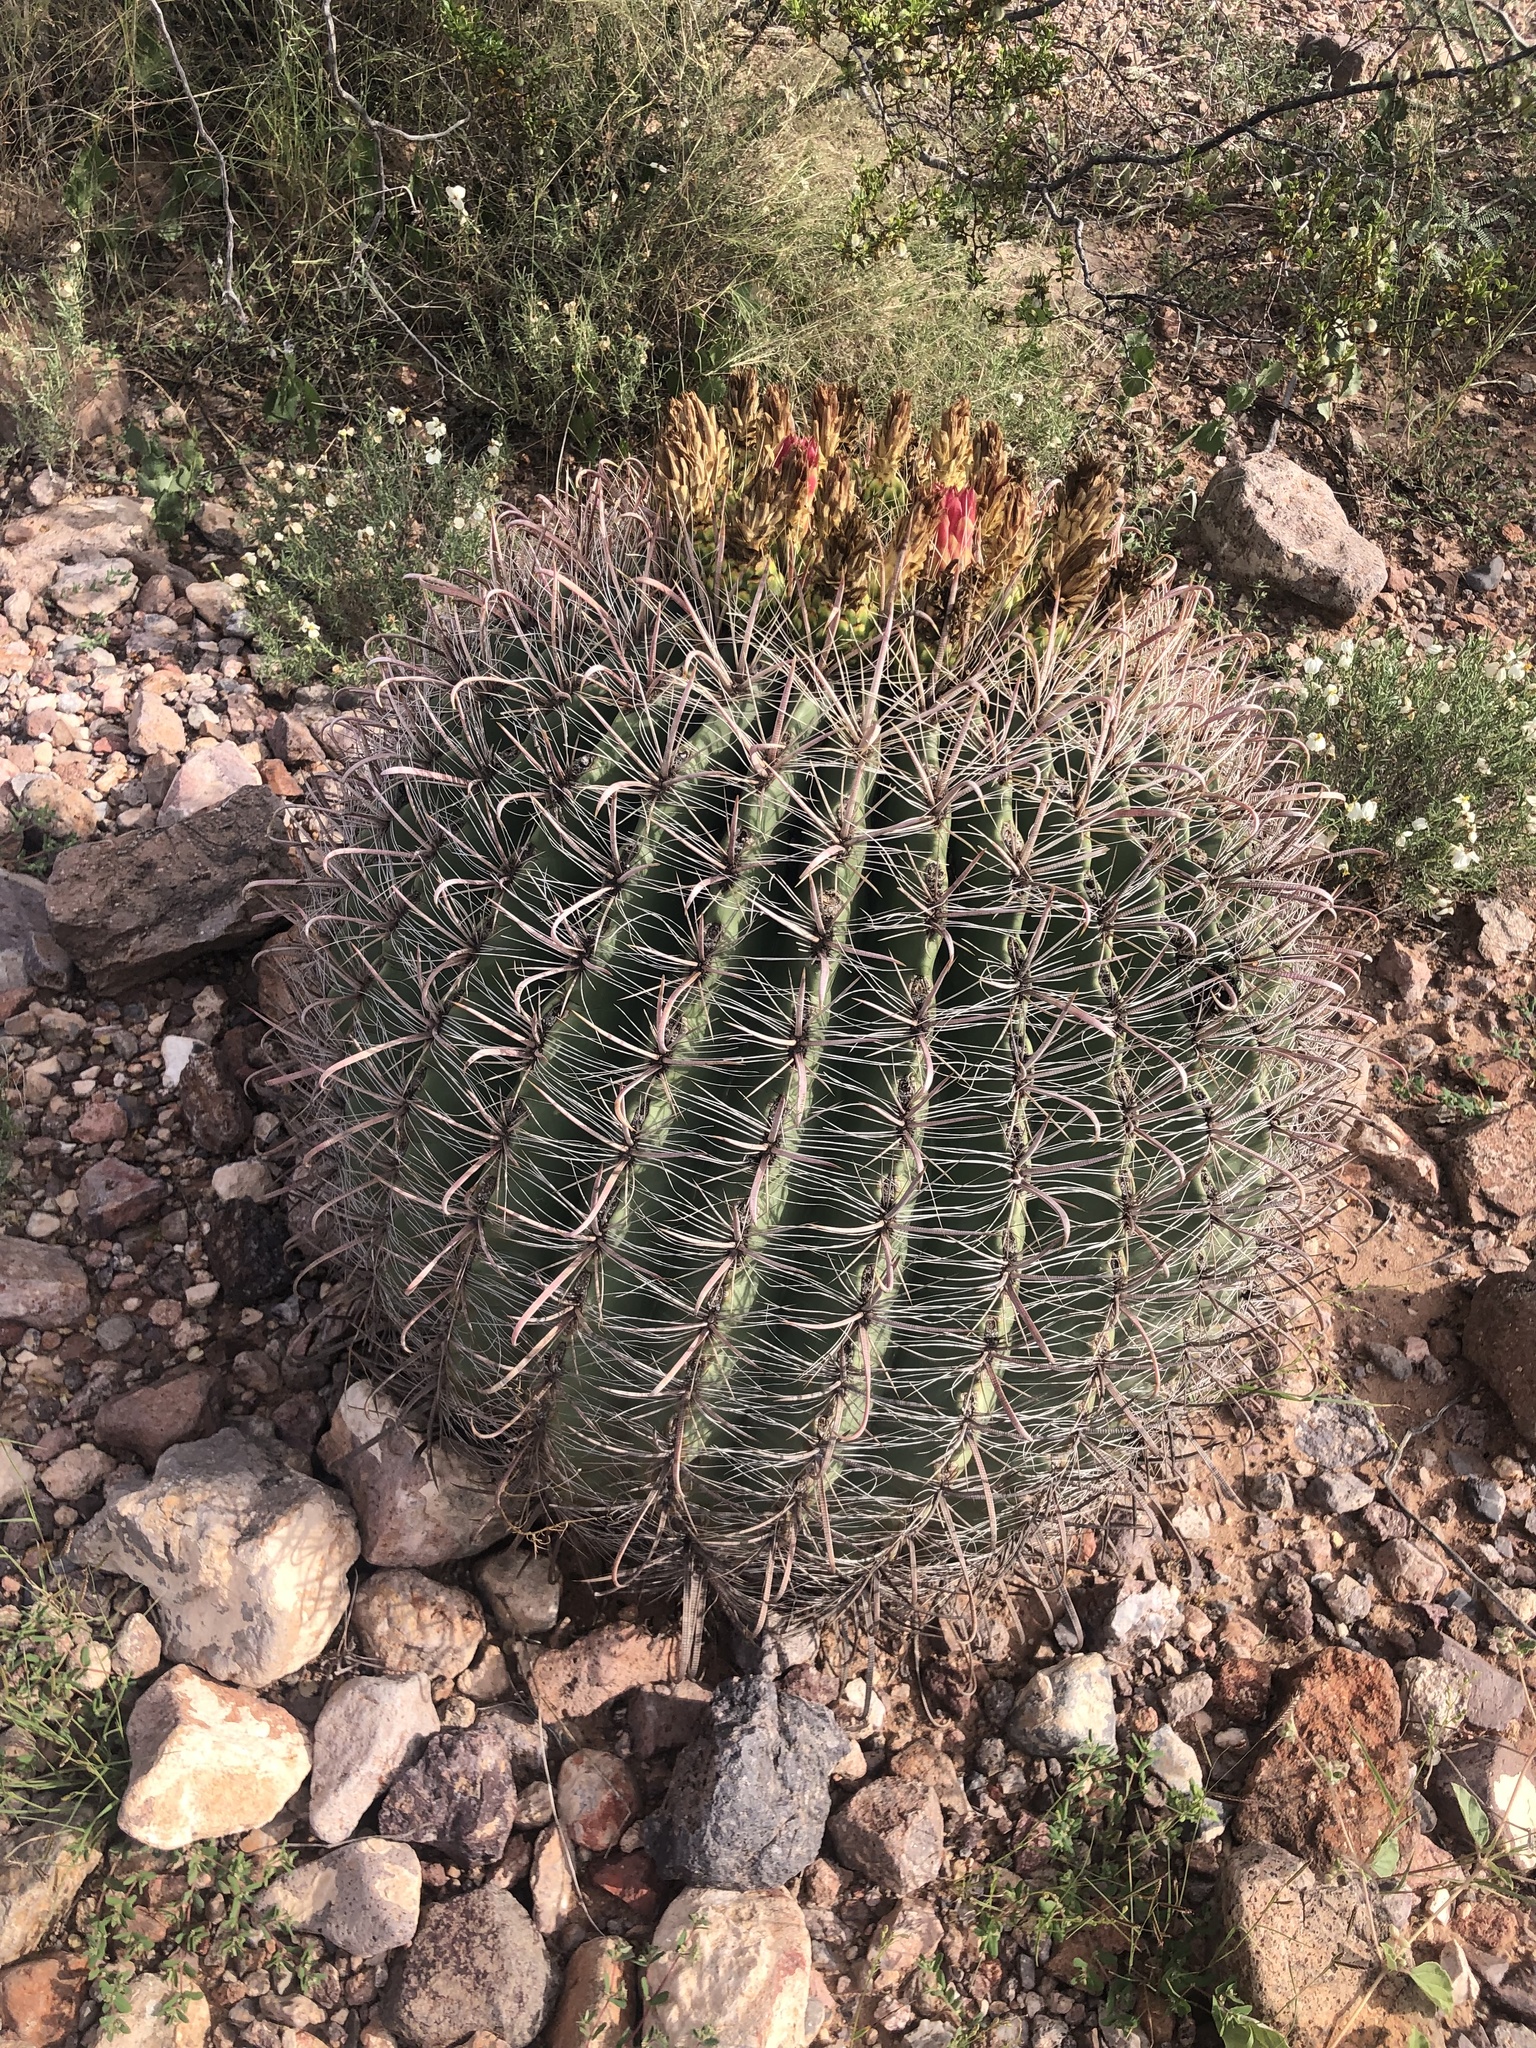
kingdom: Plantae
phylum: Tracheophyta
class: Magnoliopsida
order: Caryophyllales
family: Cactaceae
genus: Ferocactus
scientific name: Ferocactus wislizeni
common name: Candy barrel cactus
